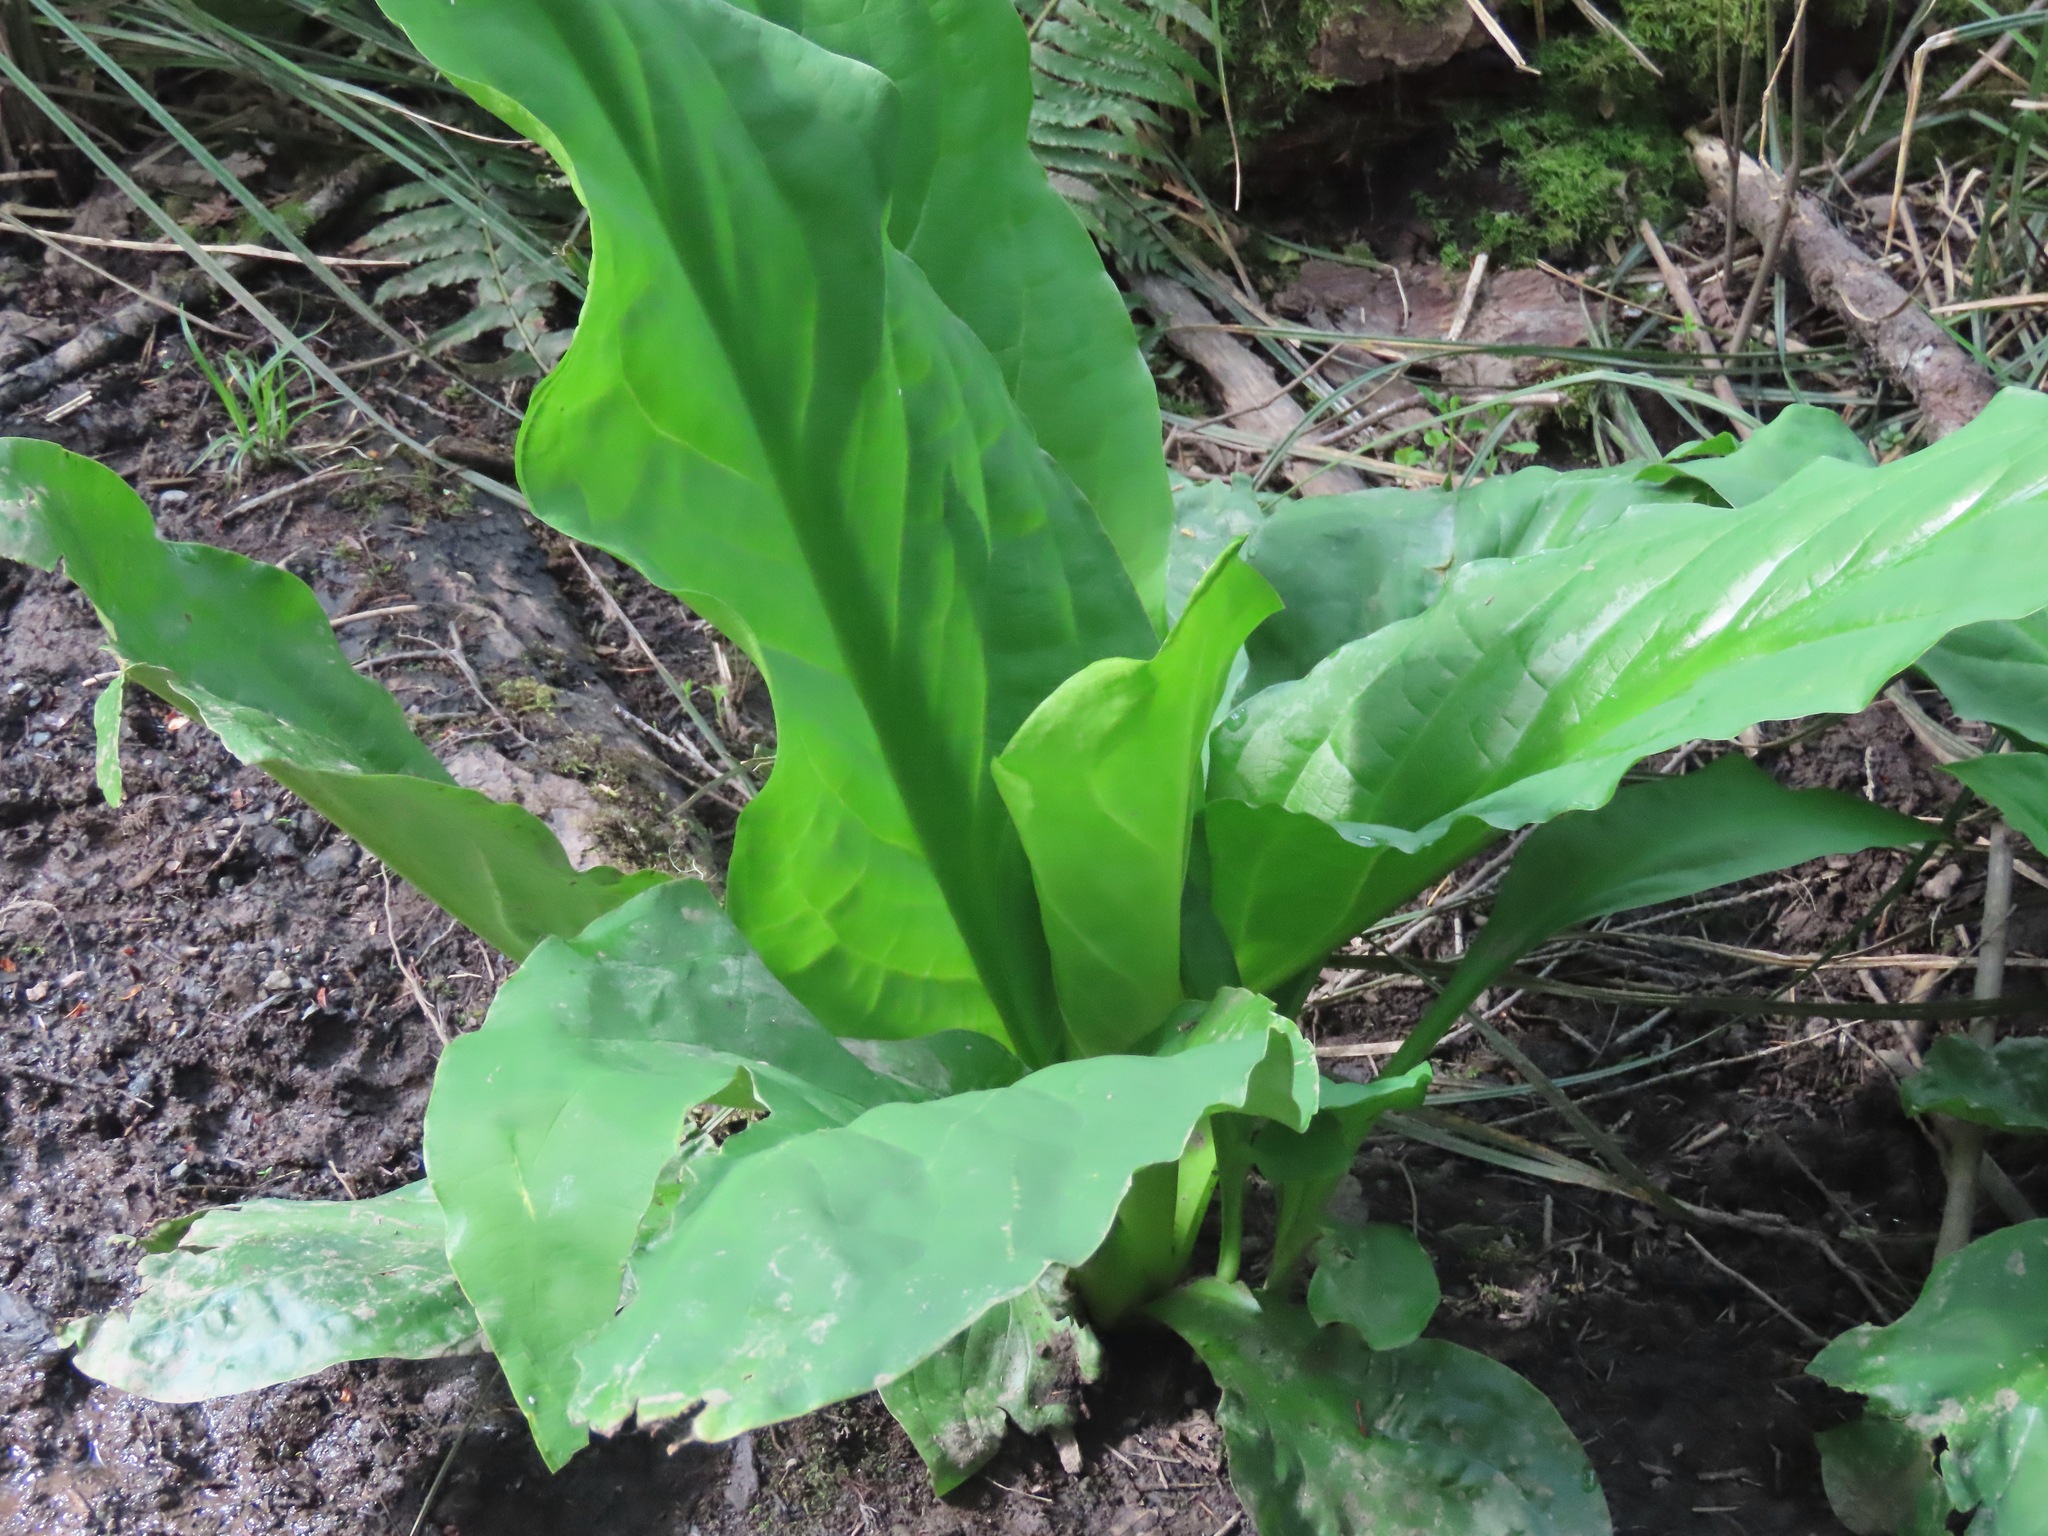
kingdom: Plantae
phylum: Tracheophyta
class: Liliopsida
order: Alismatales
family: Araceae
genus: Lysichiton
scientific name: Lysichiton americanus
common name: American skunk cabbage
